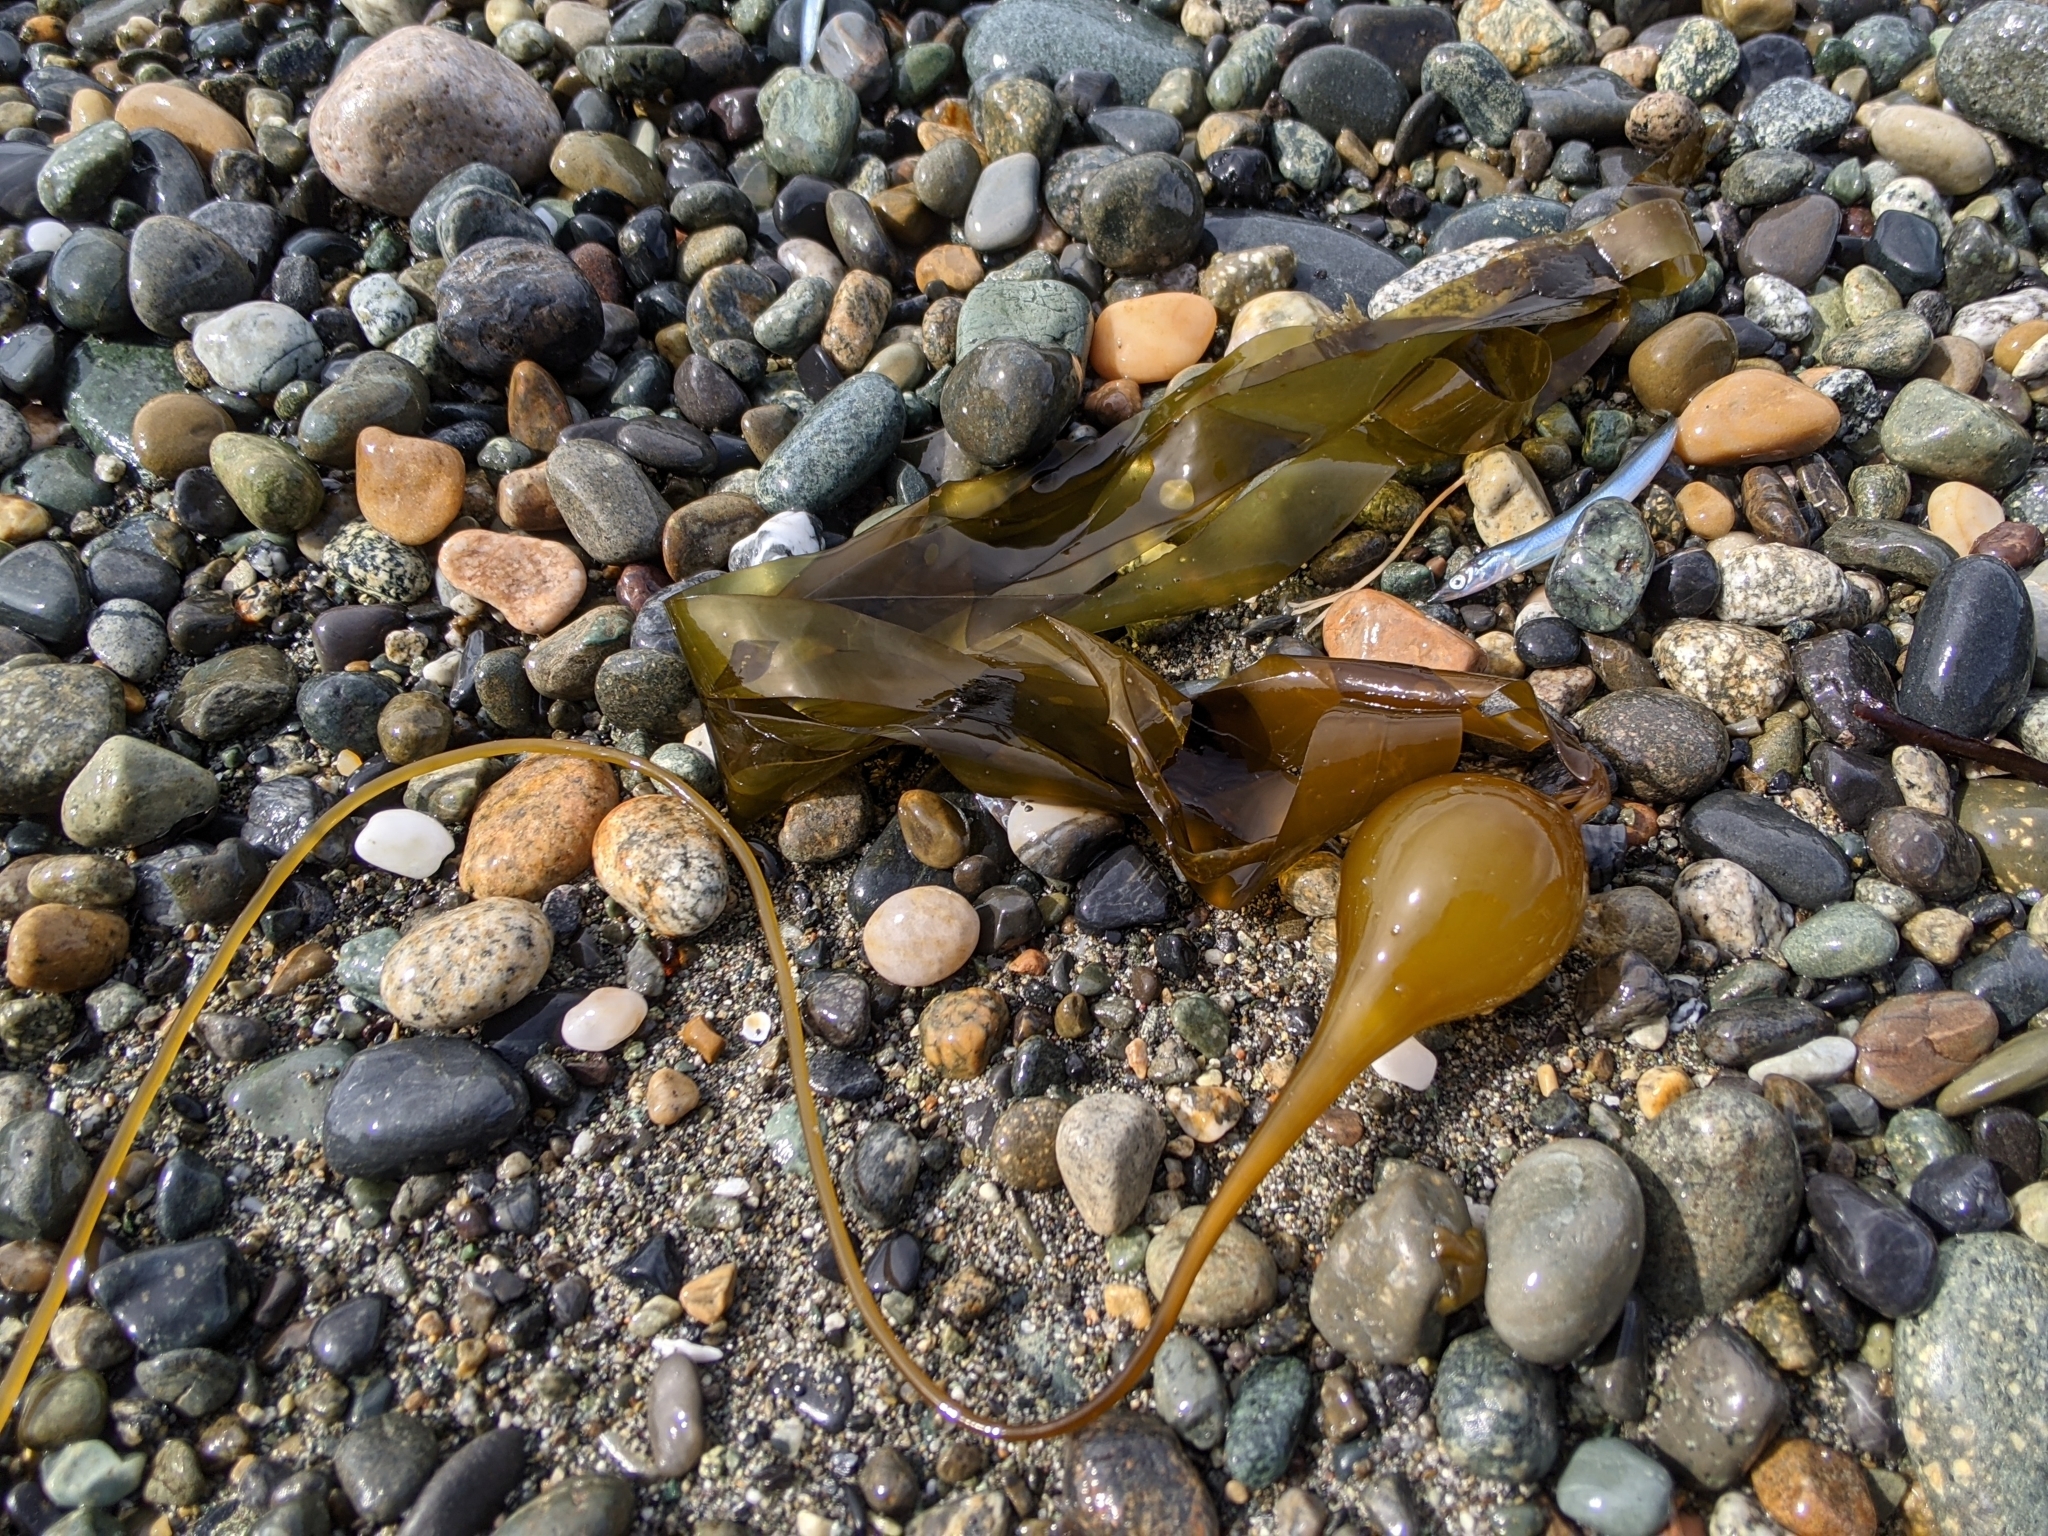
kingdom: Chromista
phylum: Ochrophyta
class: Phaeophyceae
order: Laminariales
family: Laminariaceae
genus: Nereocystis
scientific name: Nereocystis luetkeana
